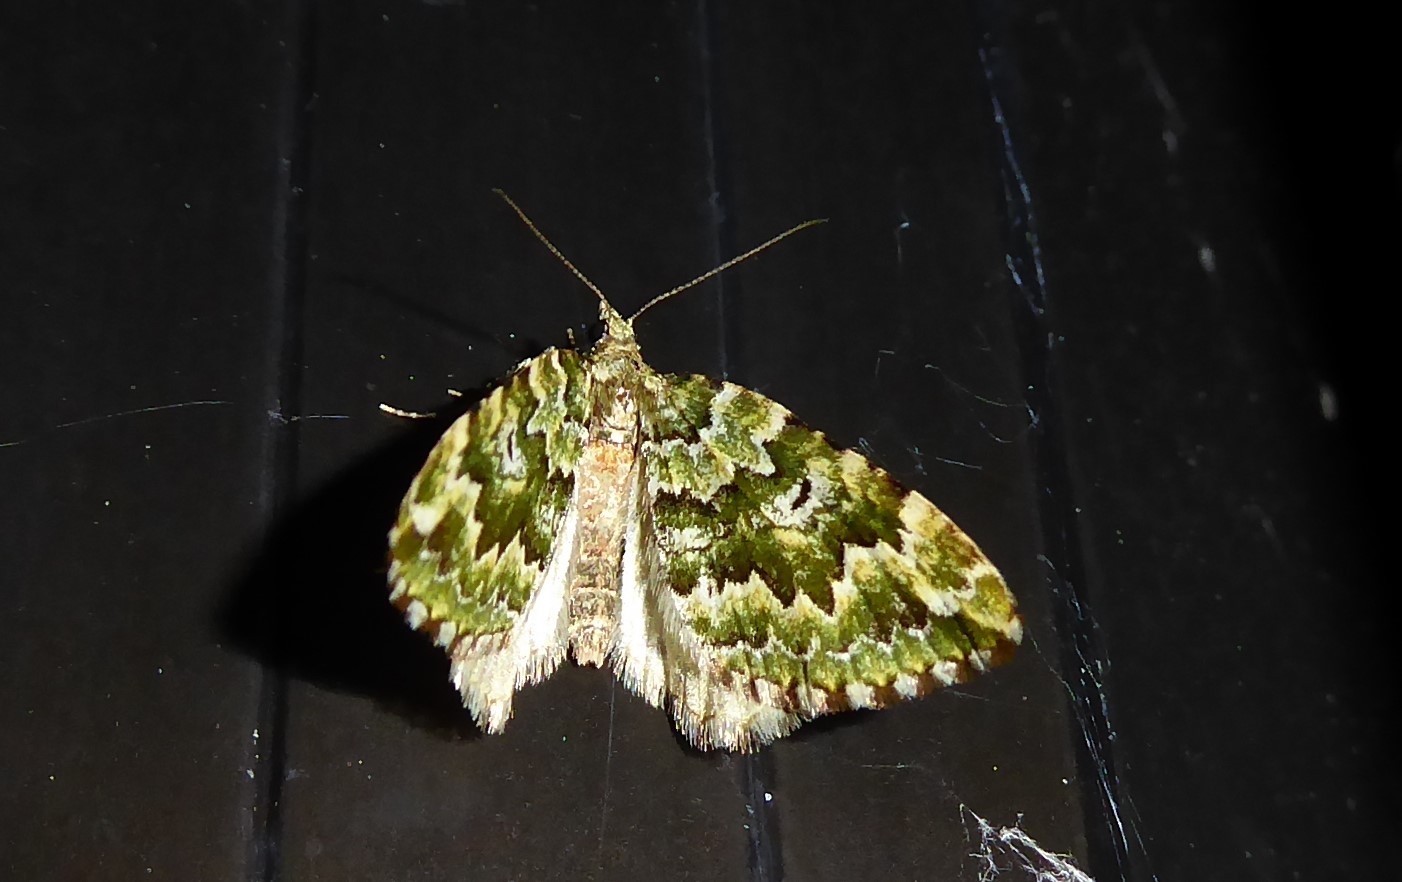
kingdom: Animalia
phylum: Arthropoda
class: Insecta
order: Lepidoptera
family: Geometridae
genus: Asaphodes
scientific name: Asaphodes beata
